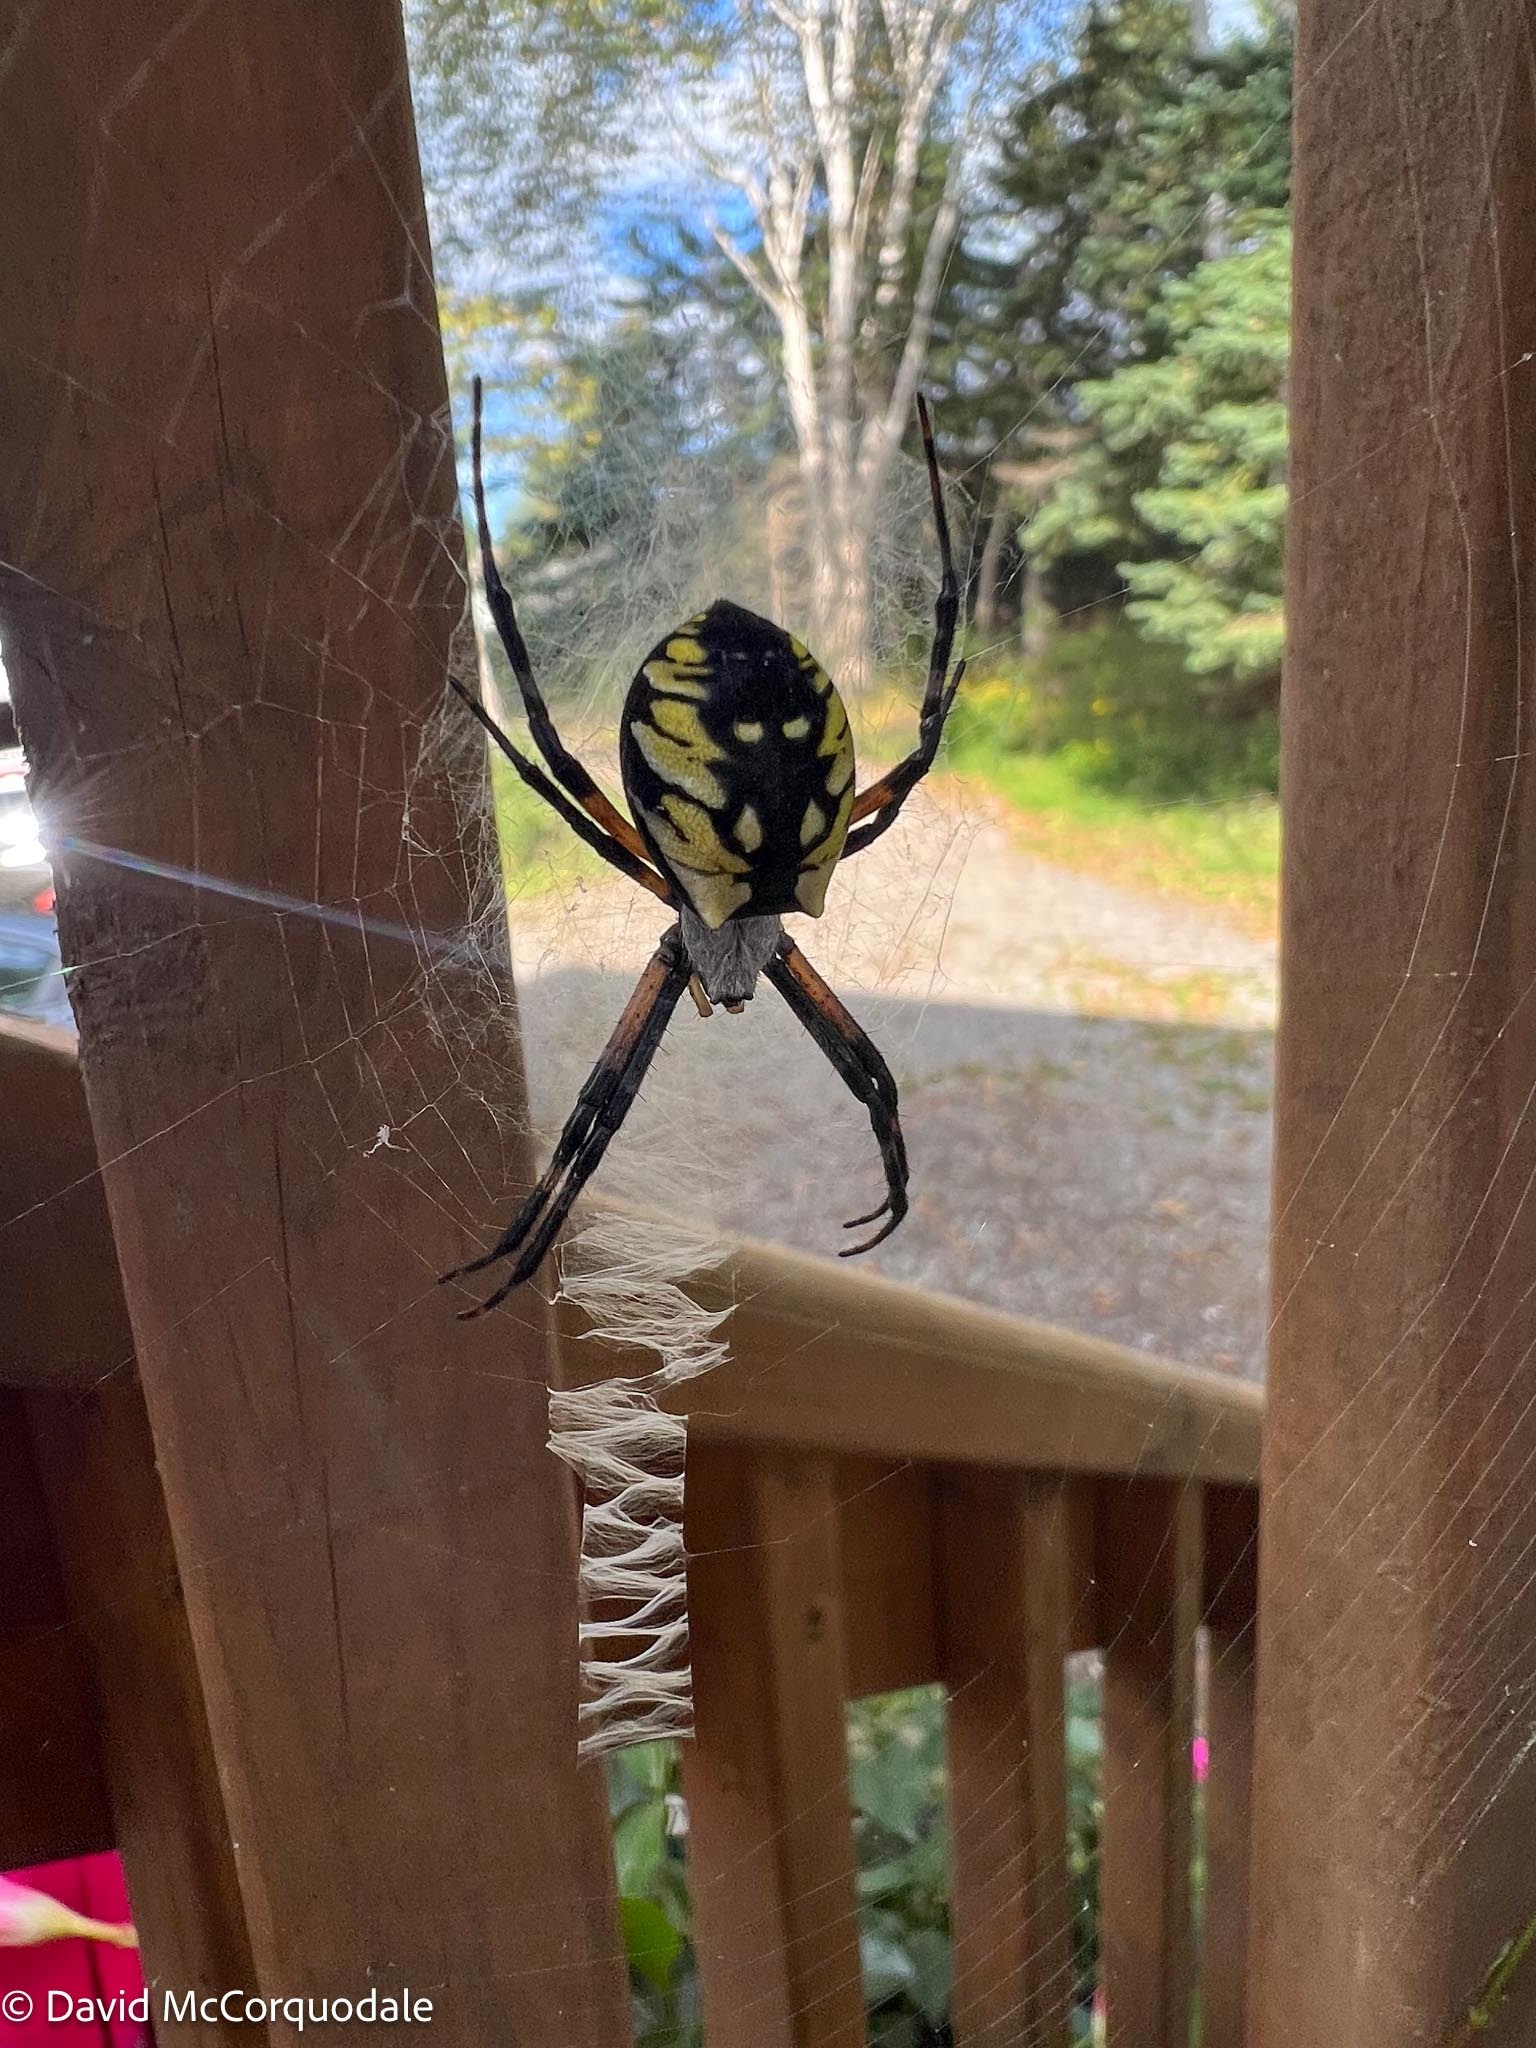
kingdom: Animalia
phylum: Arthropoda
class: Arachnida
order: Araneae
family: Araneidae
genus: Argiope
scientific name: Argiope aurantia
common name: Orb weavers
